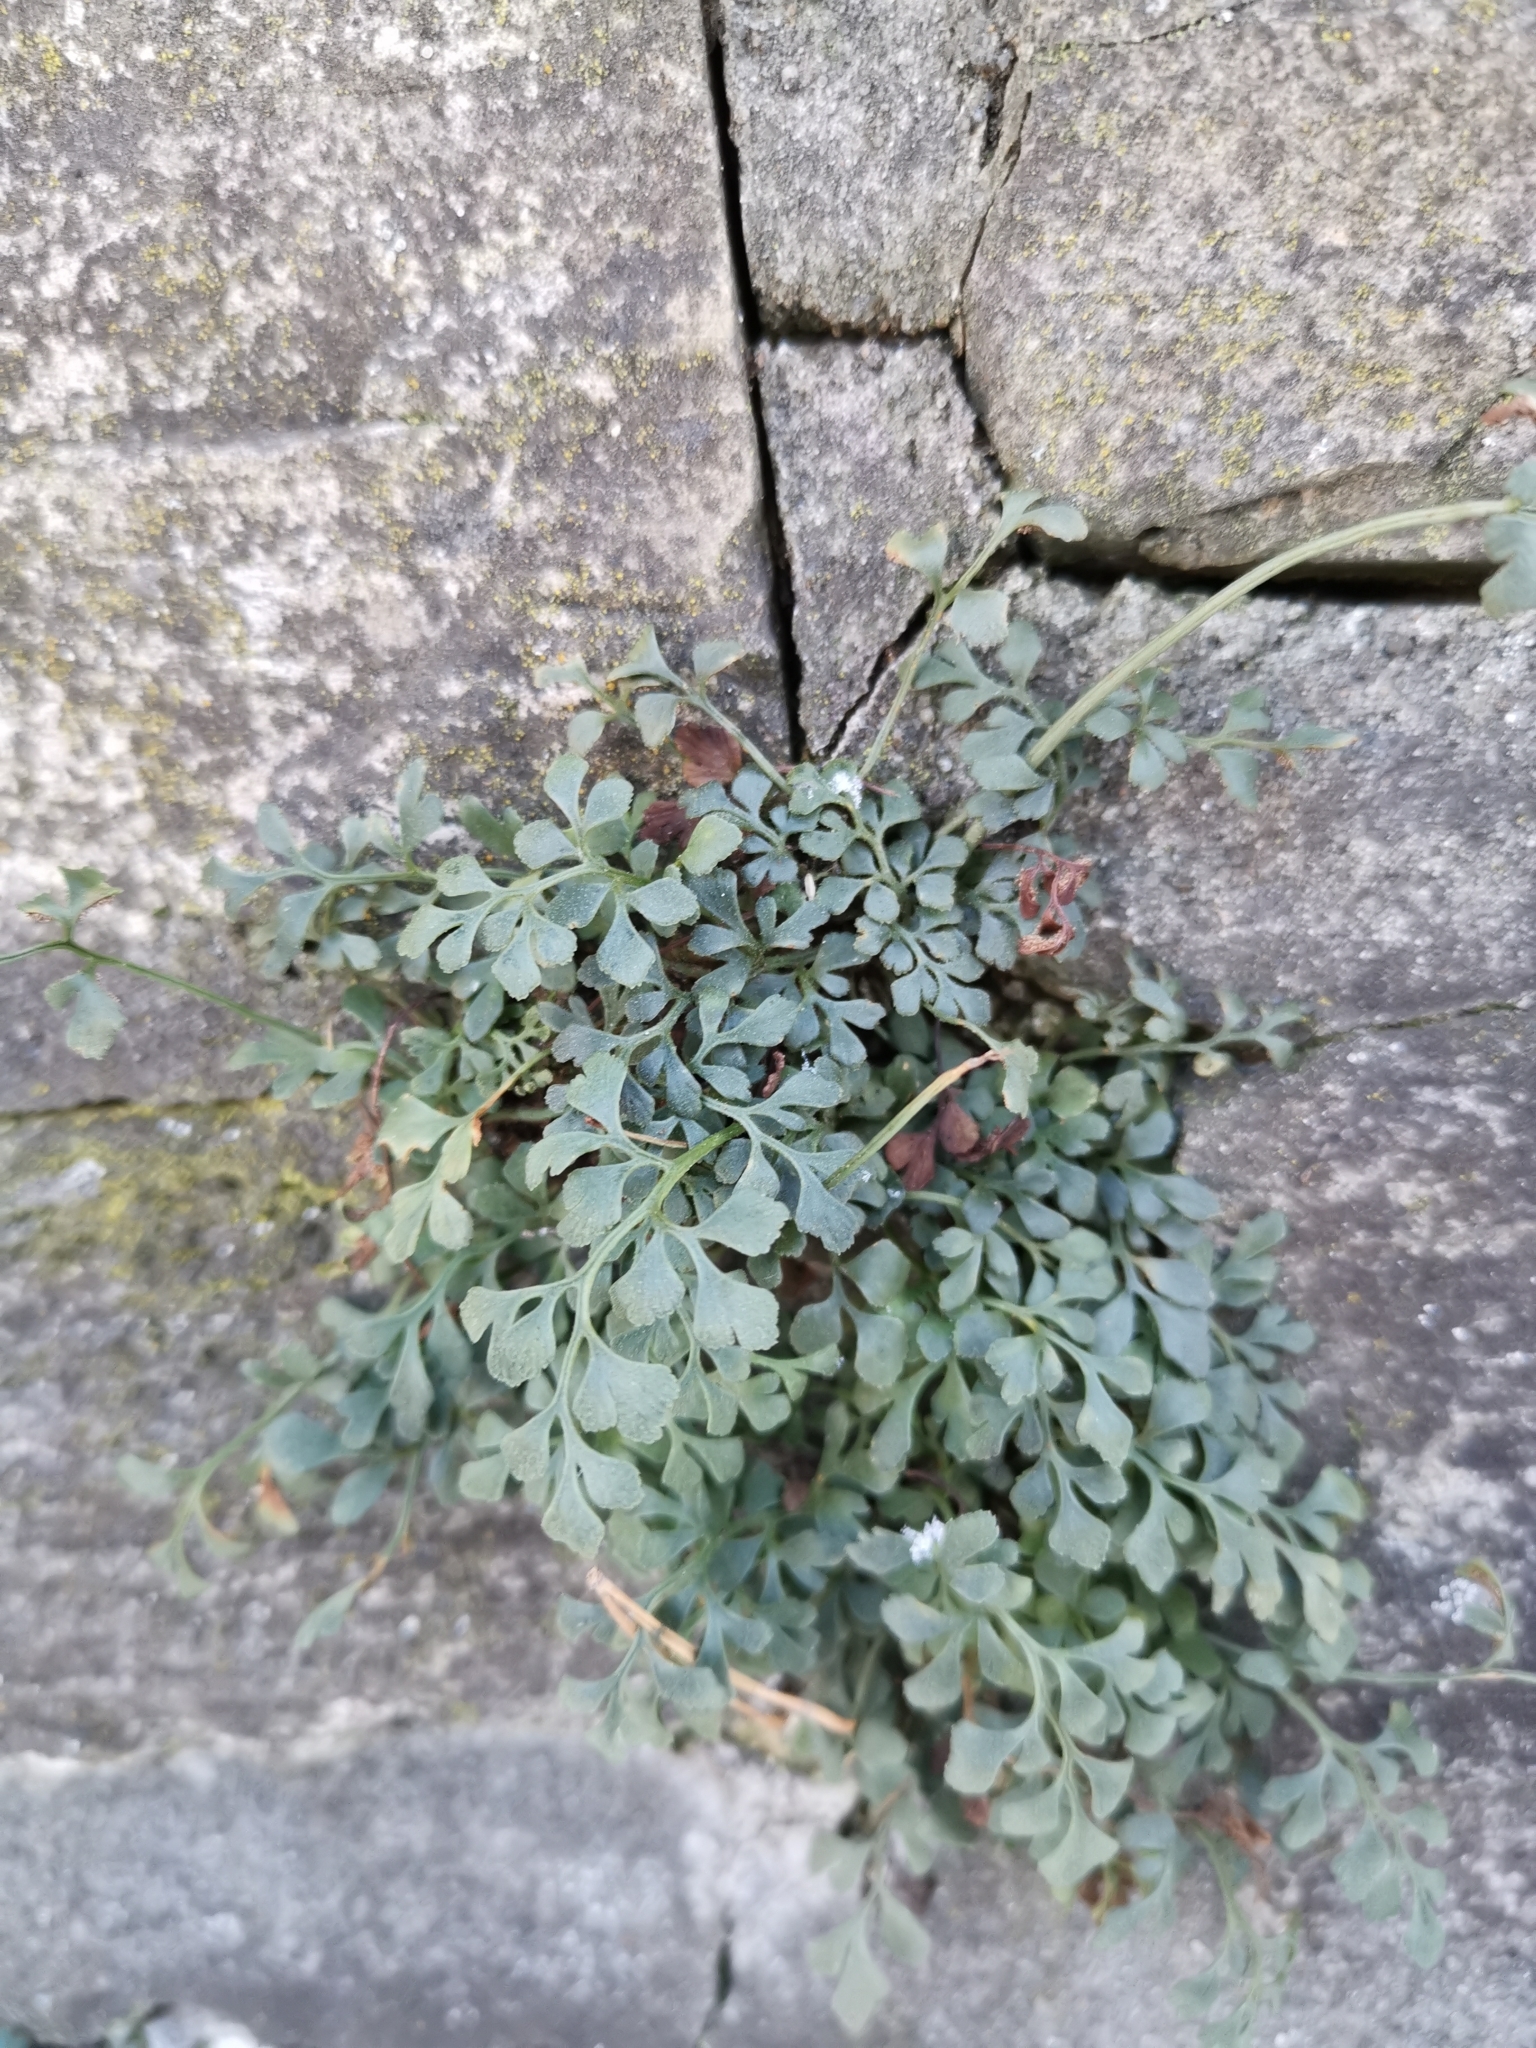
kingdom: Plantae
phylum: Tracheophyta
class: Polypodiopsida
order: Polypodiales
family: Aspleniaceae
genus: Asplenium
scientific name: Asplenium ruta-muraria
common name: Wall-rue
